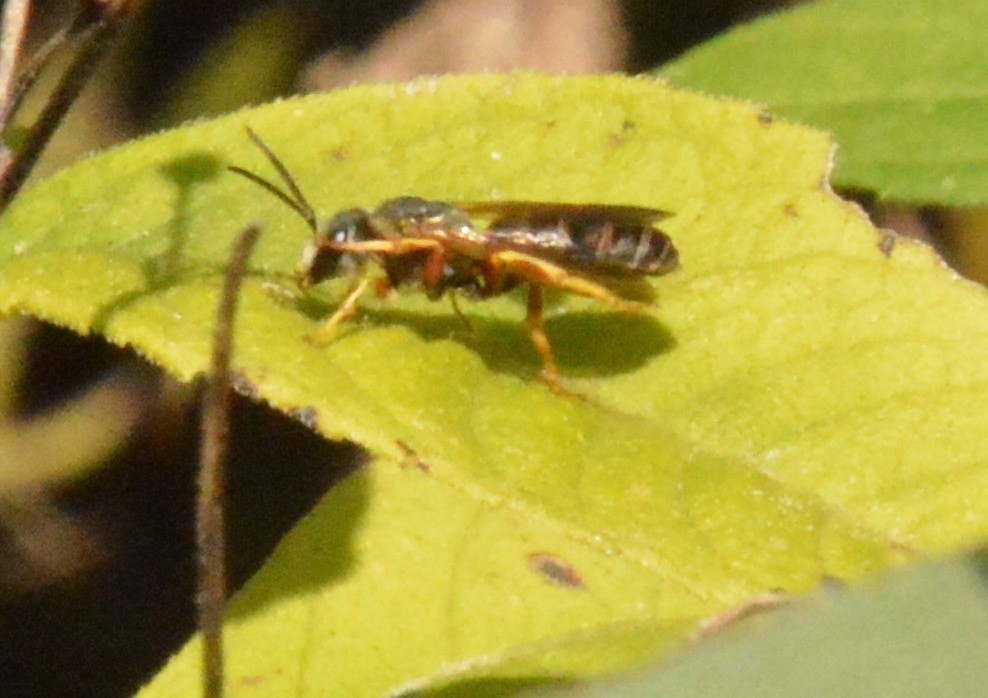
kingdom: Animalia
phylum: Arthropoda
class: Insecta
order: Hymenoptera
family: Halictidae
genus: Halictus
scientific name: Halictus ligatus
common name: Ligated furrow bee
